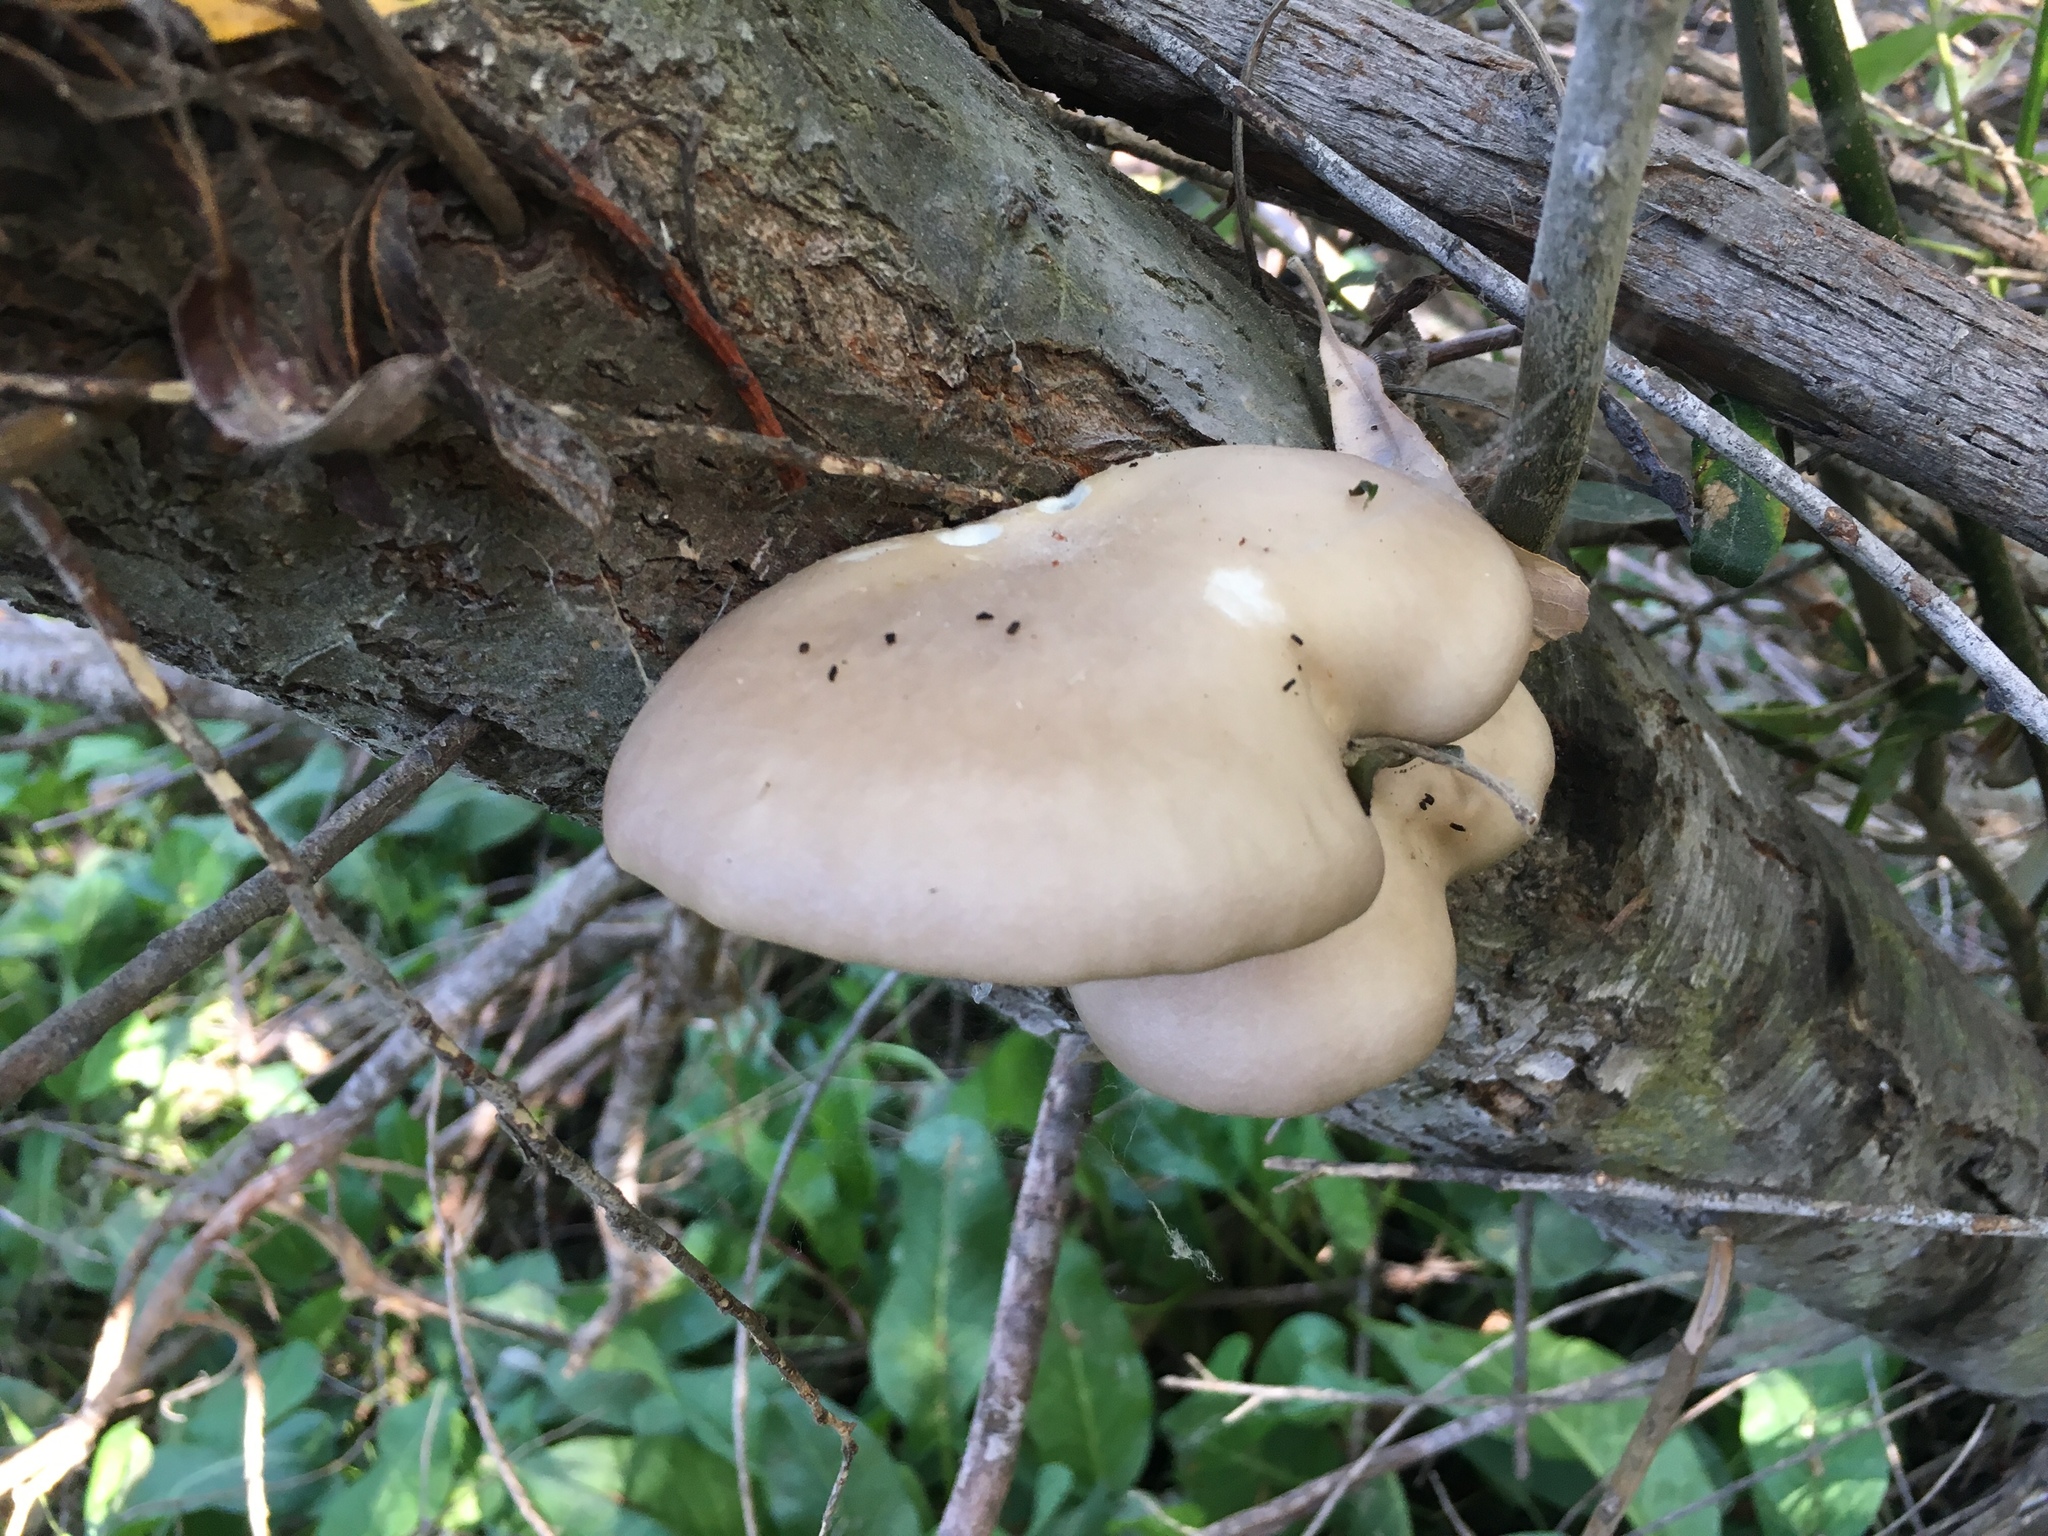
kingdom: Fungi
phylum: Basidiomycota
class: Agaricomycetes
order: Agaricales
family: Pleurotaceae
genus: Pleurotus
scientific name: Pleurotus pulmonarius
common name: Pale oyster
